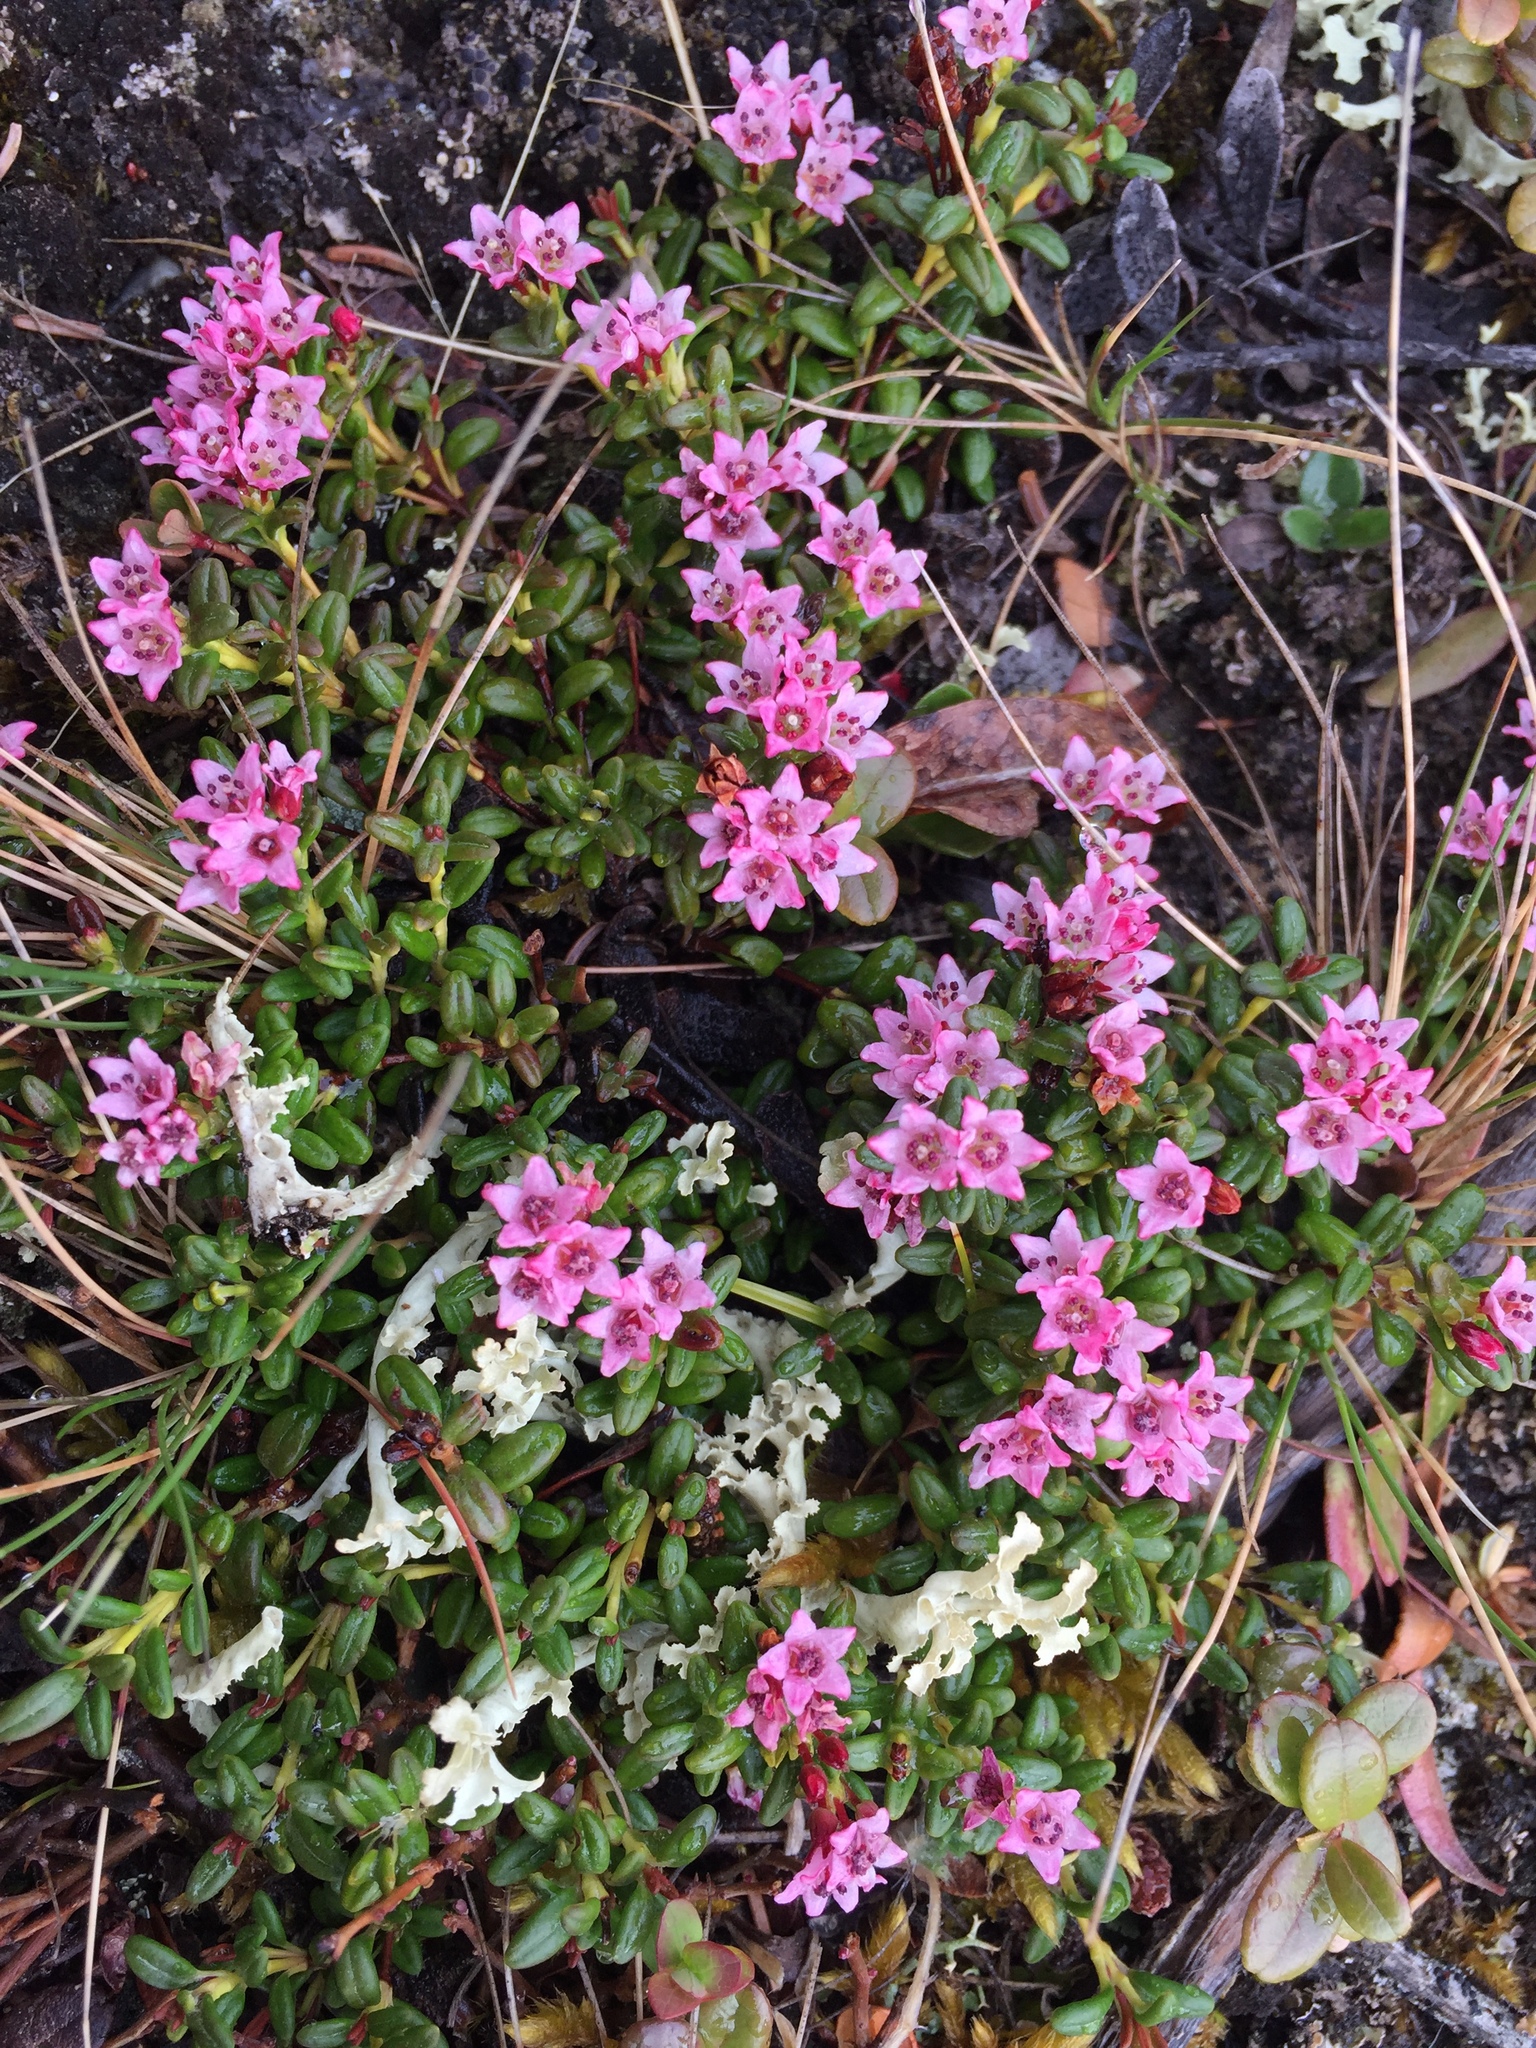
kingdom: Plantae
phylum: Tracheophyta
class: Magnoliopsida
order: Ericales
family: Ericaceae
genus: Kalmia
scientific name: Kalmia procumbens
